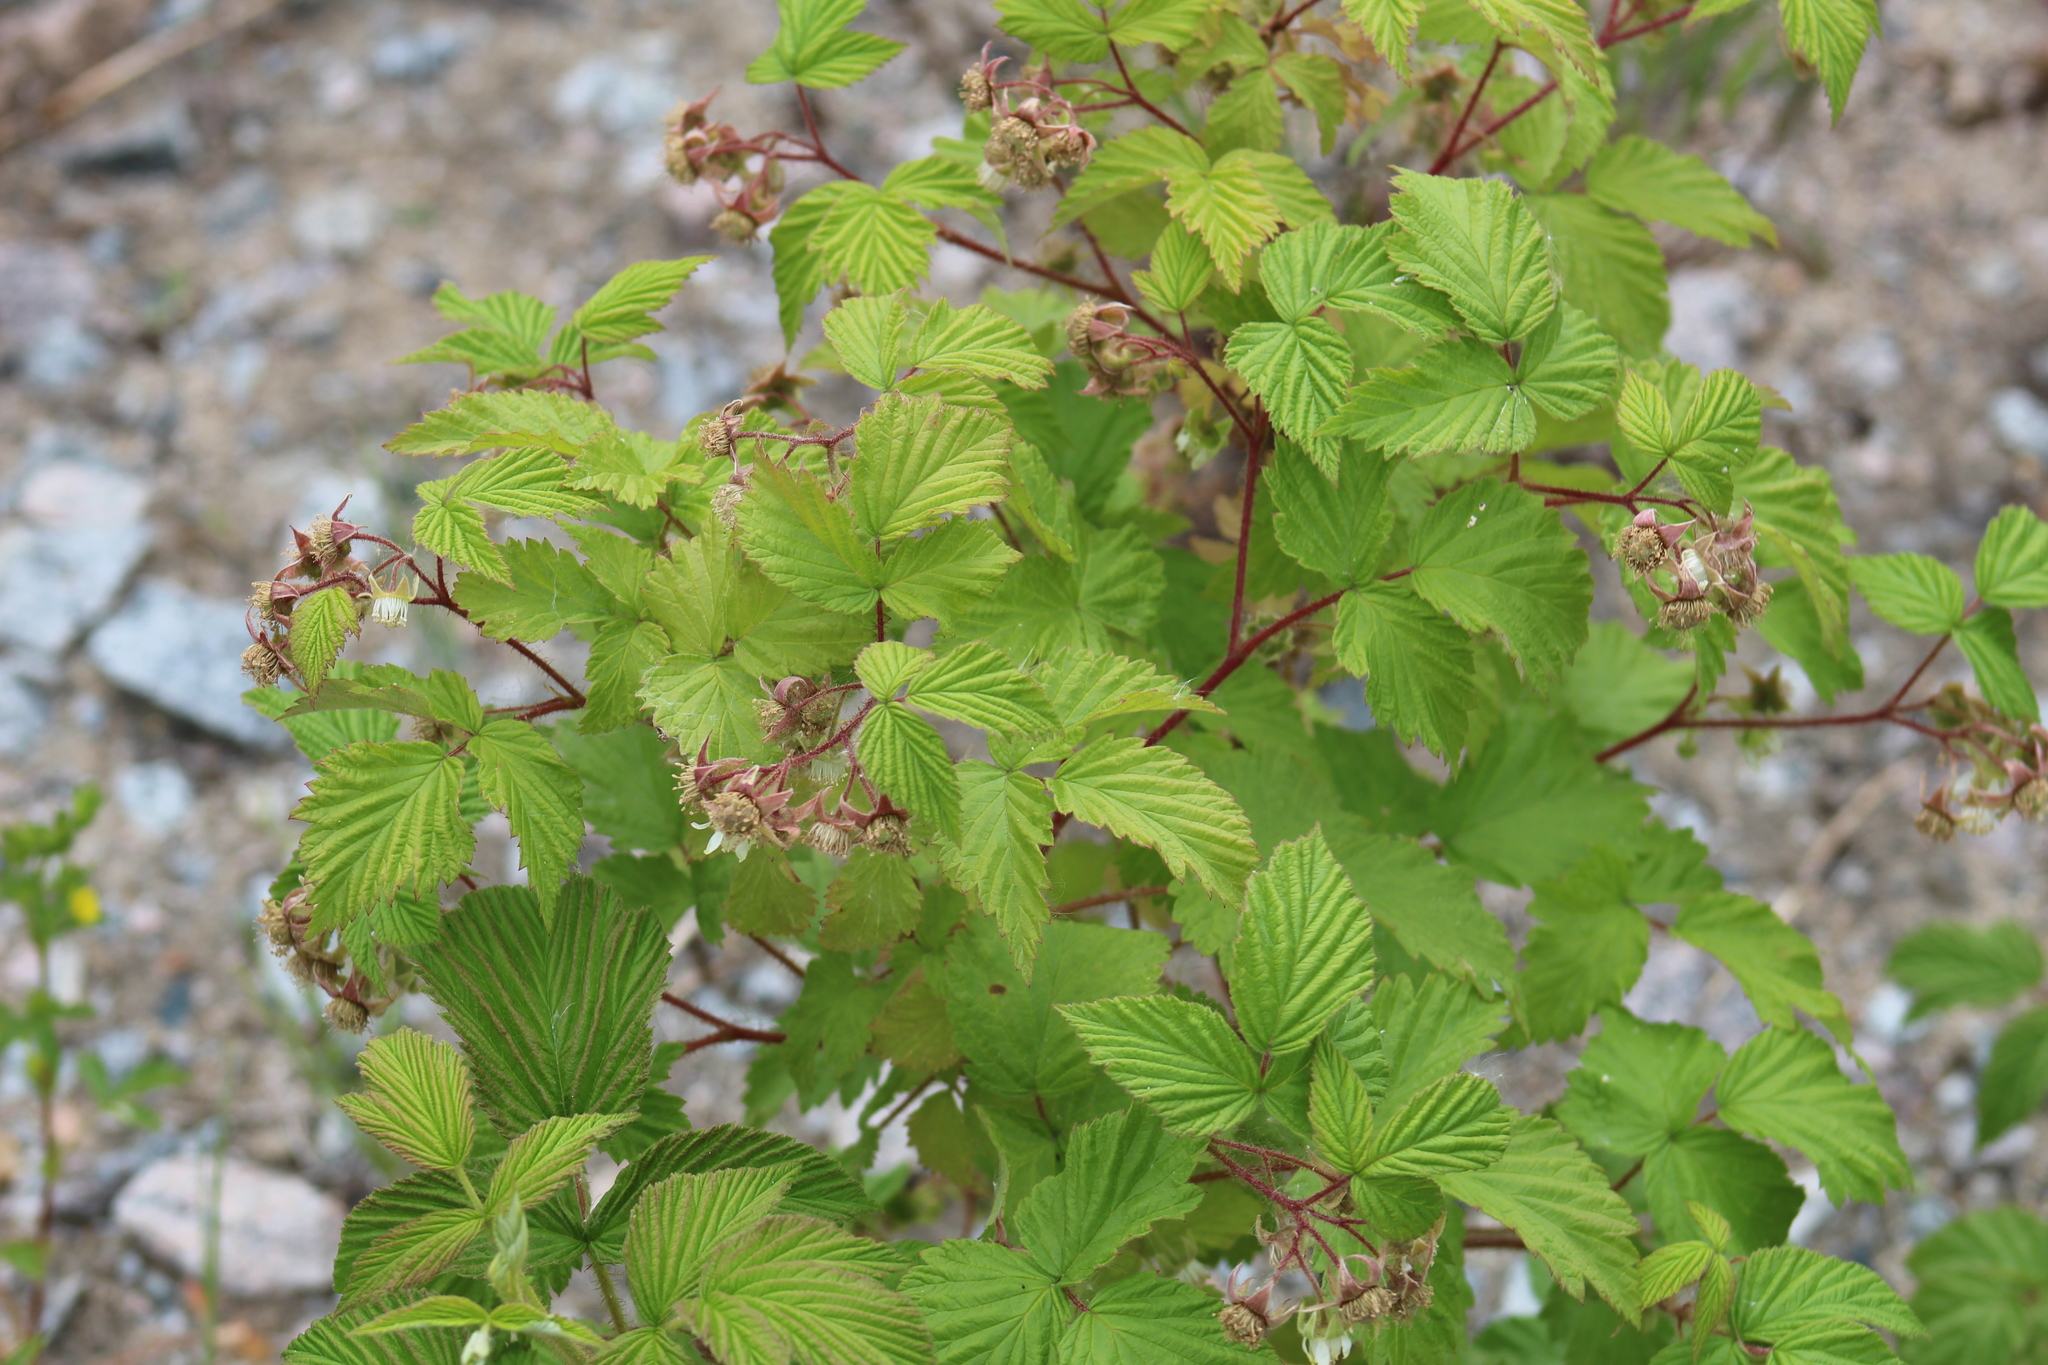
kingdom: Plantae
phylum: Tracheophyta
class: Magnoliopsida
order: Rosales
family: Rosaceae
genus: Rubus
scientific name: Rubus idaeus
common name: Raspberry
